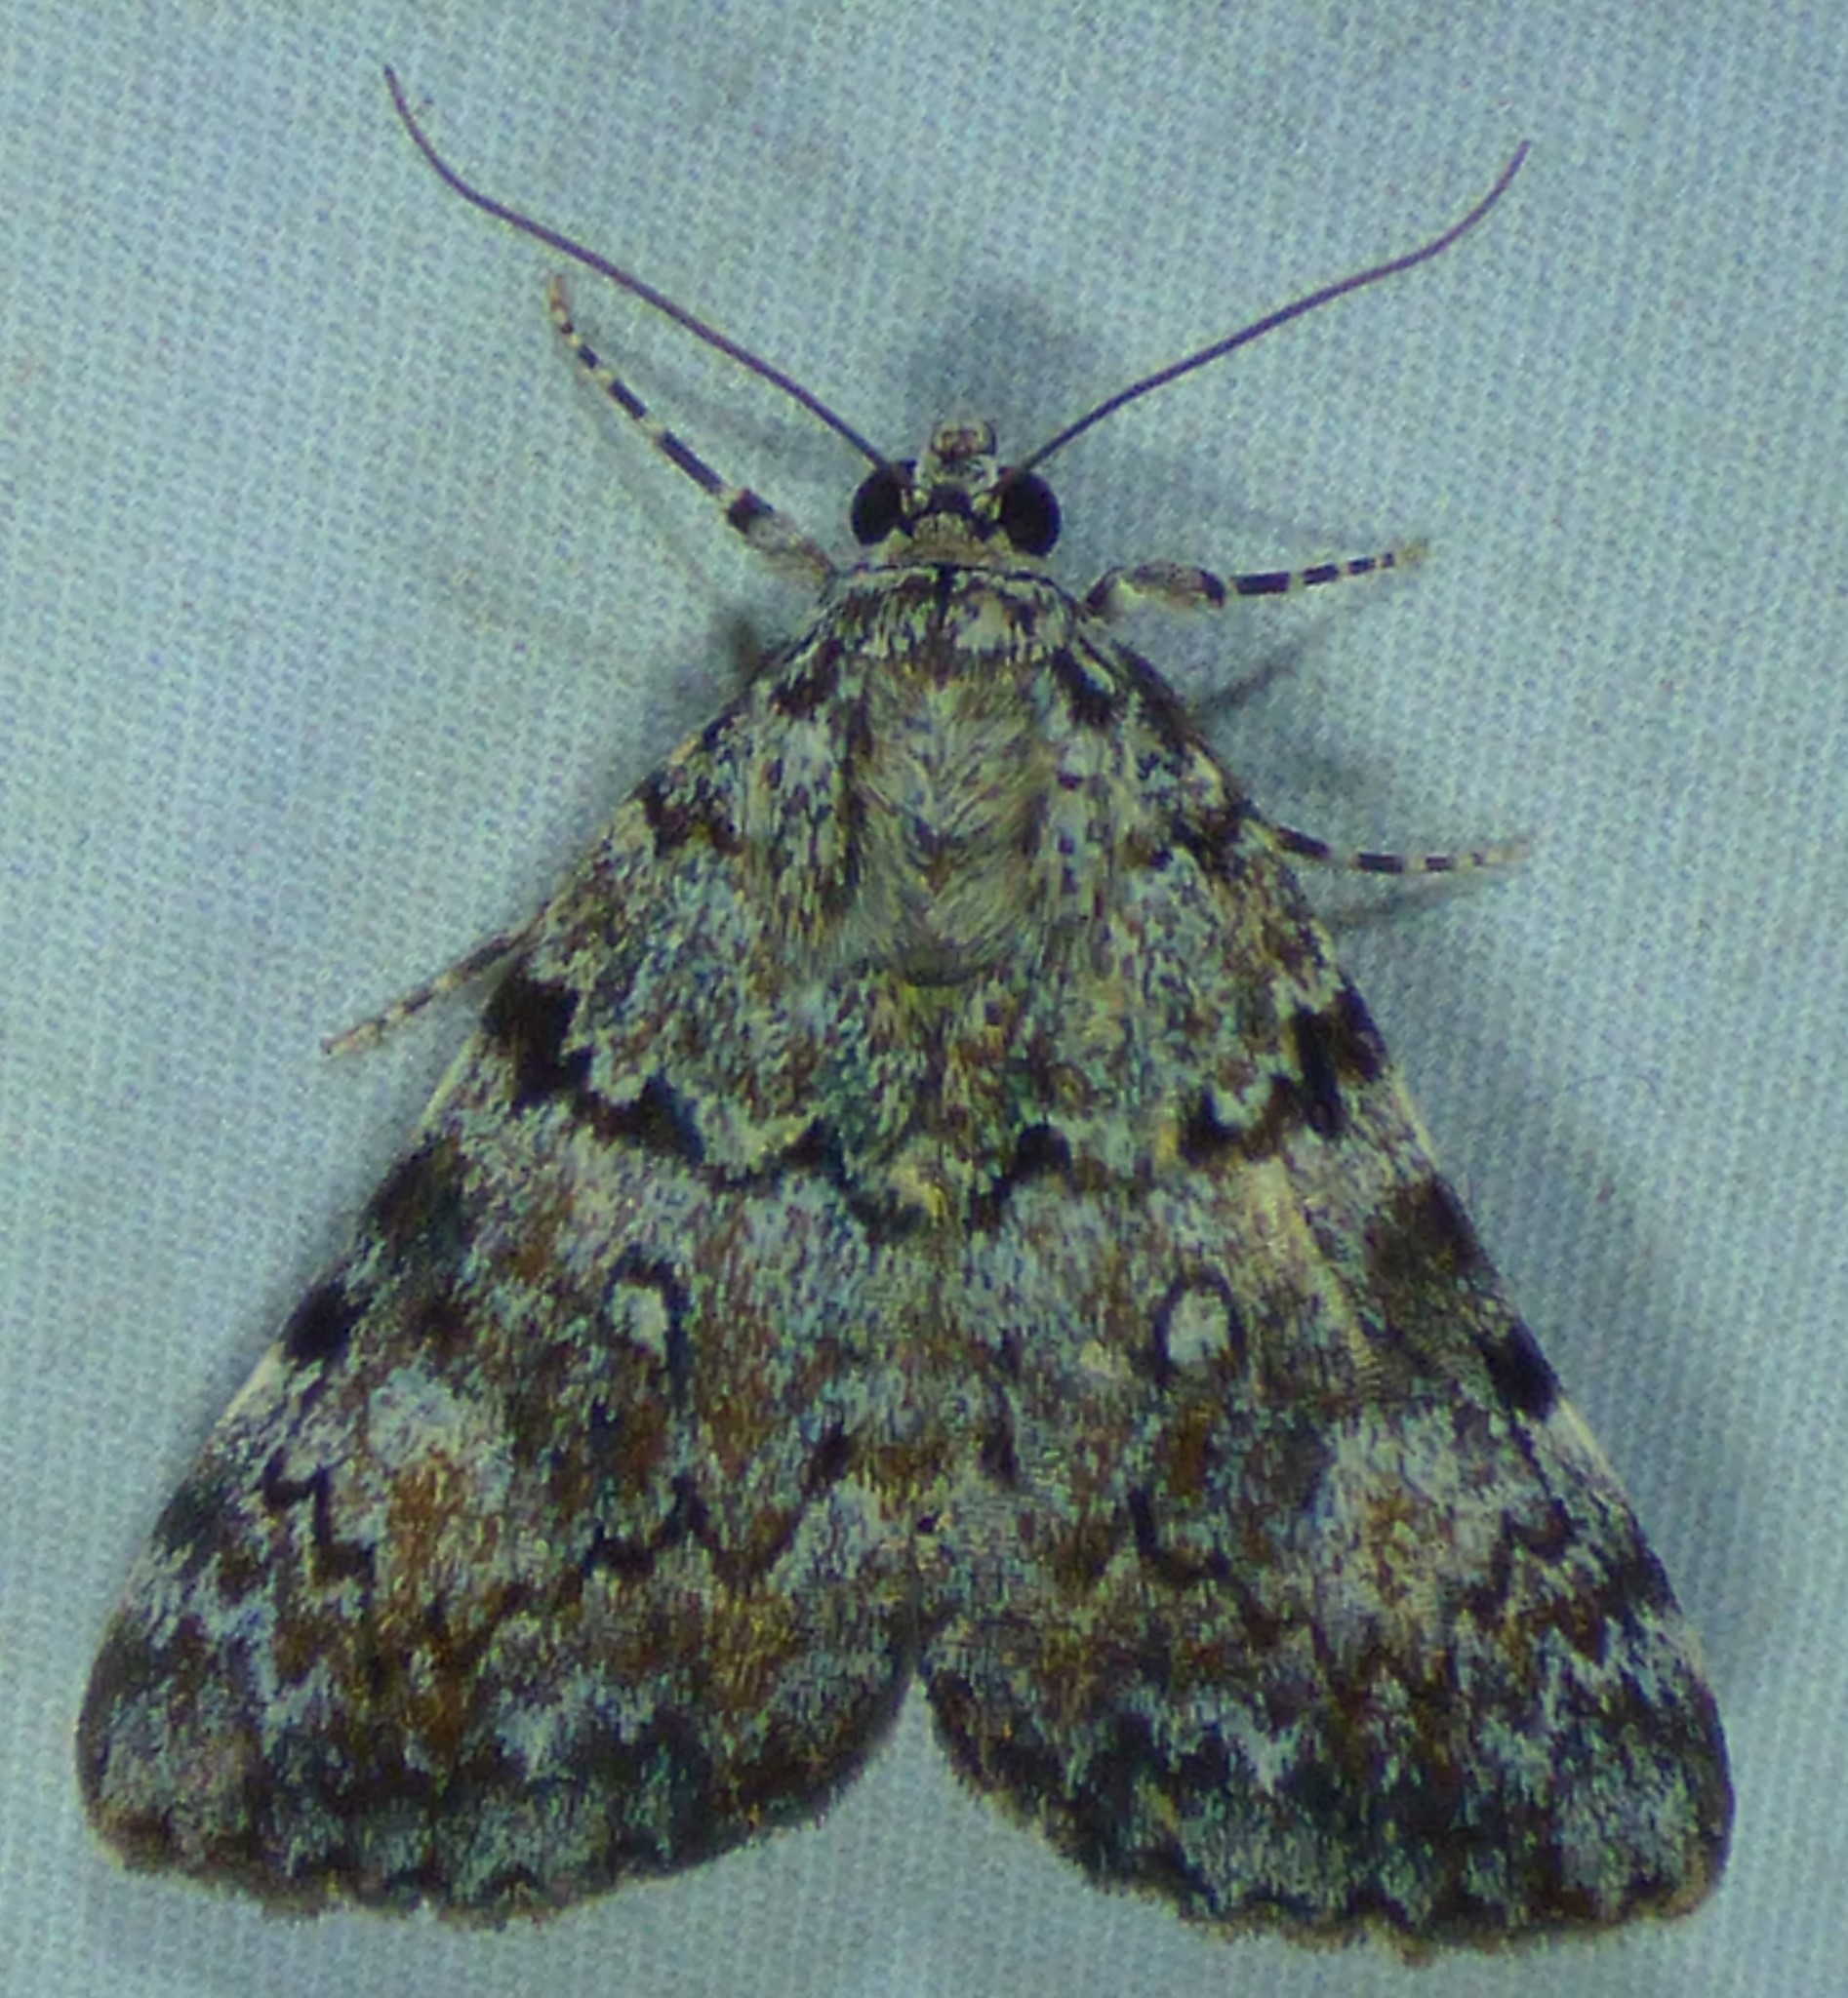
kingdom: Animalia
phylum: Arthropoda
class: Insecta
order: Lepidoptera
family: Erebidae
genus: Catocala
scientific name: Catocala lineella
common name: Little lined underwing
